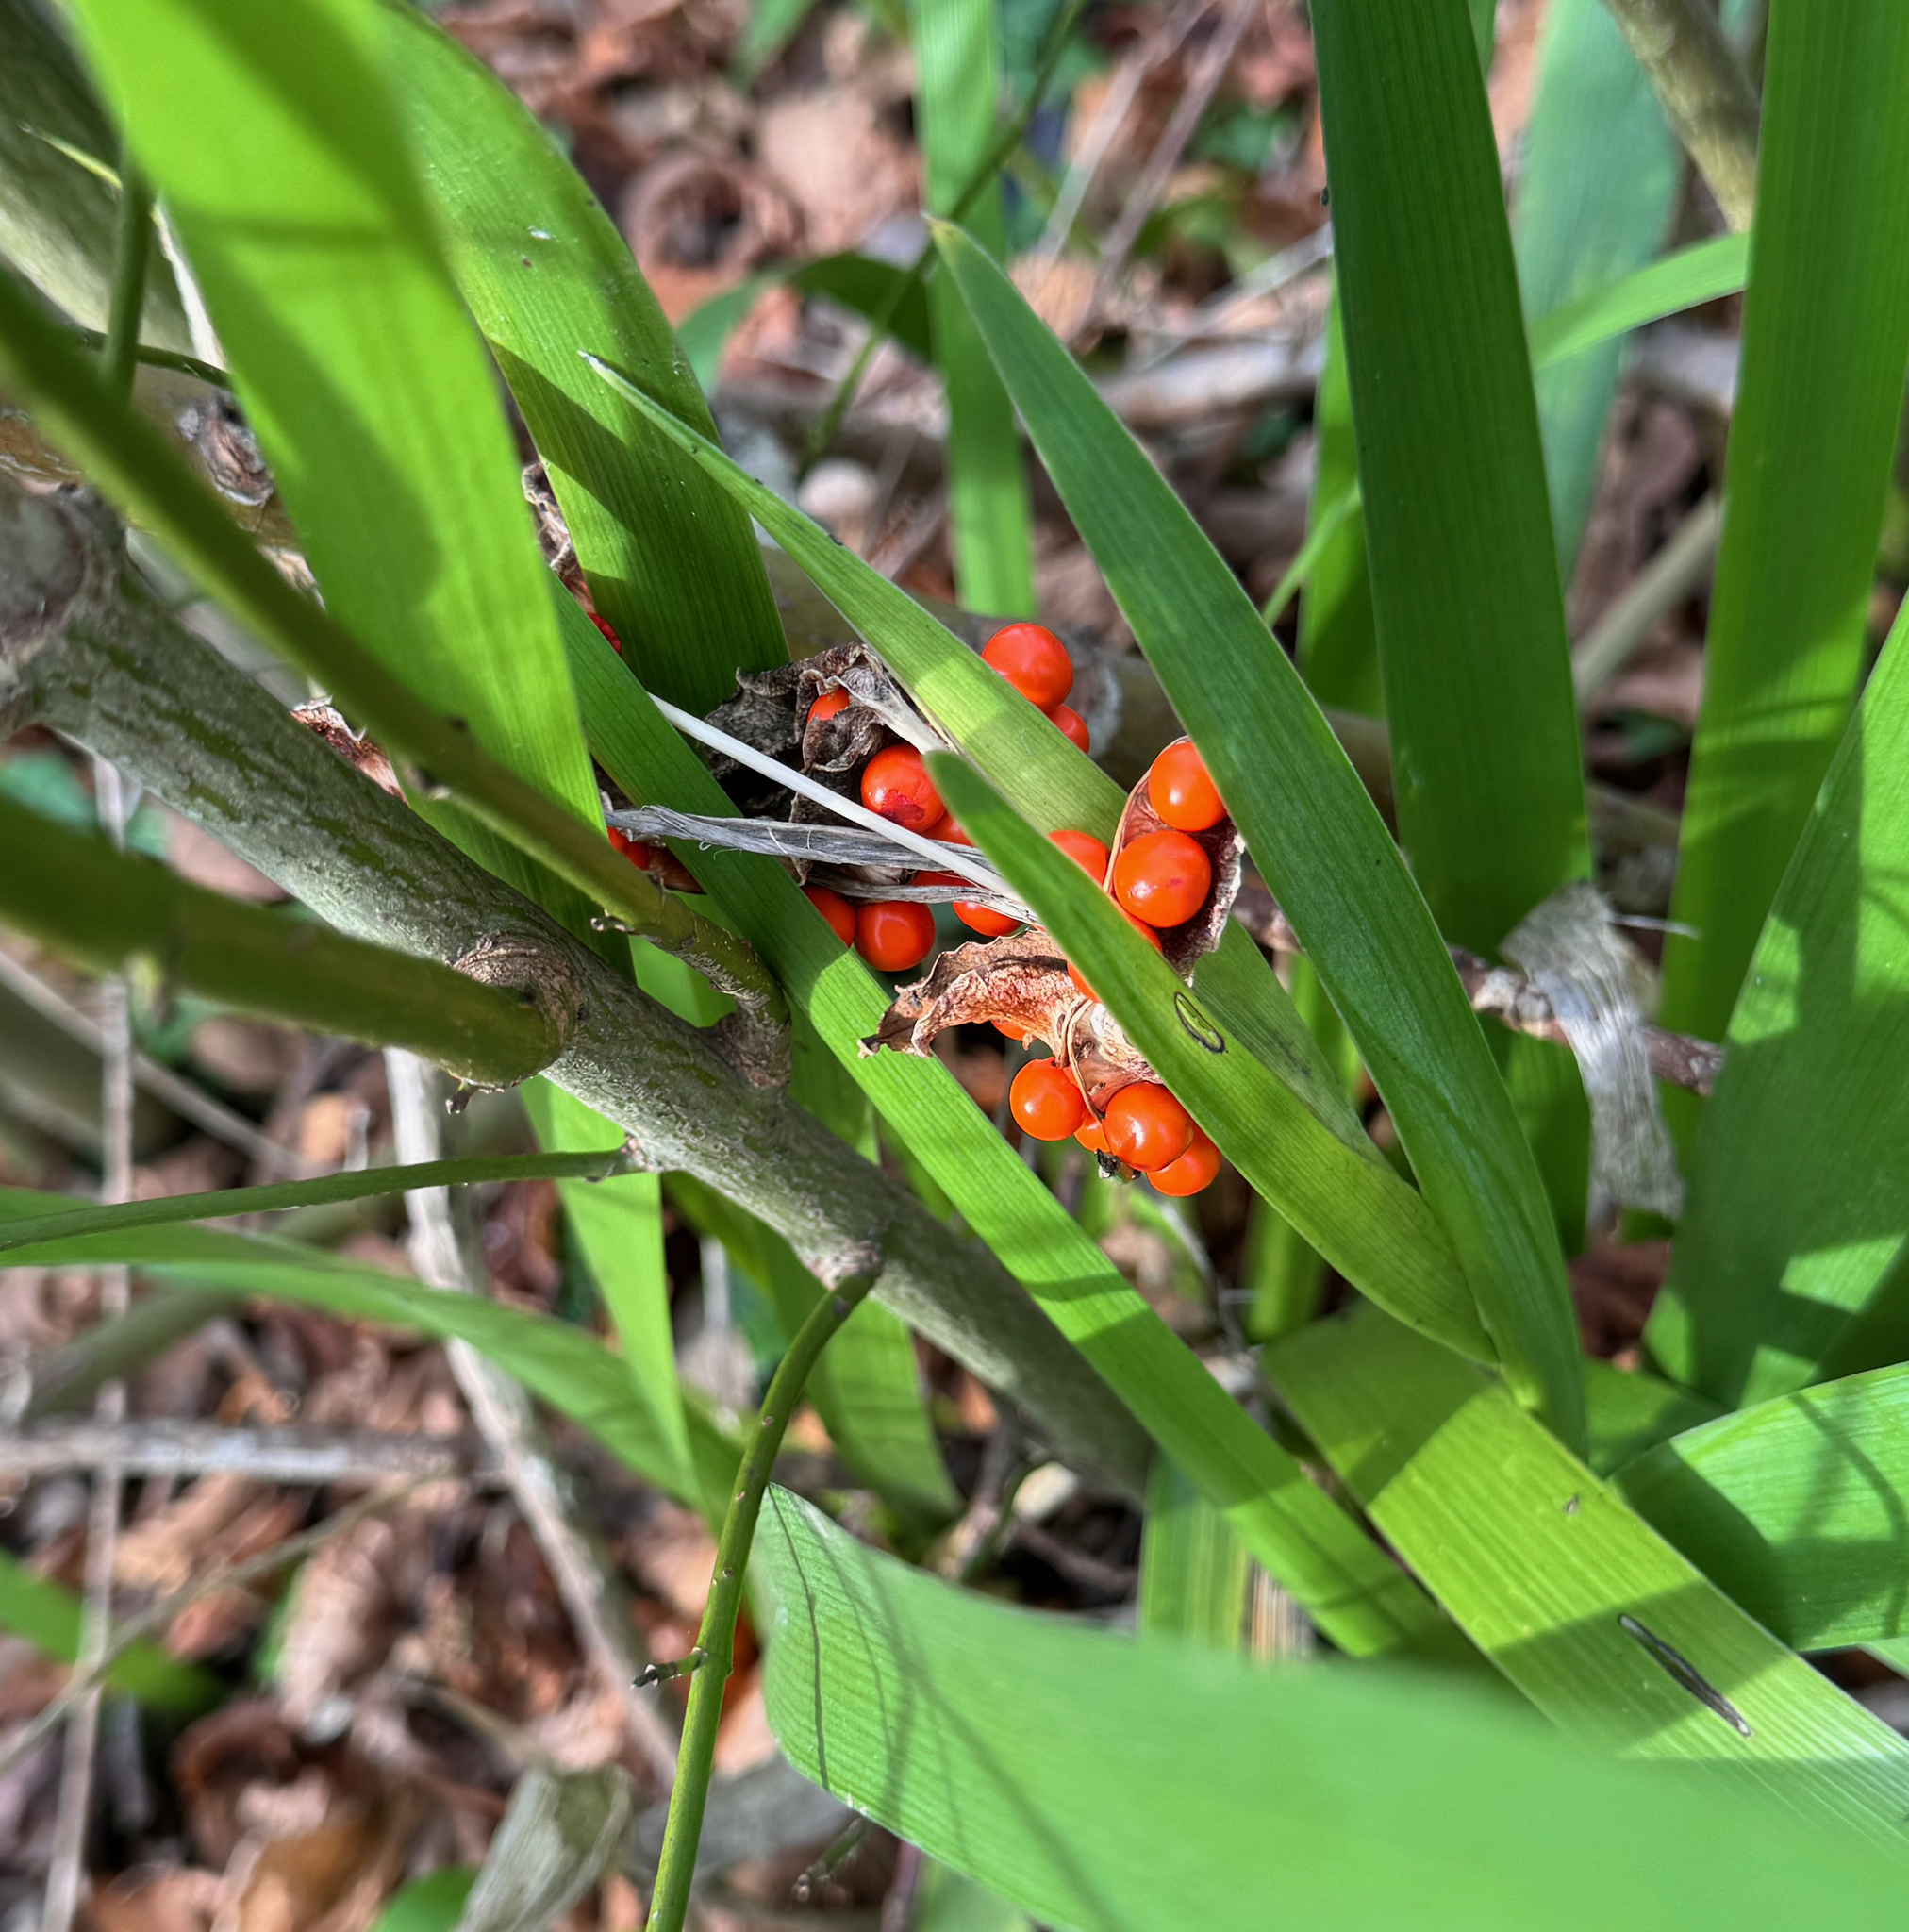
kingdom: Plantae
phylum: Tracheophyta
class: Liliopsida
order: Asparagales
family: Iridaceae
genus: Iris
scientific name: Iris foetidissima
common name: Stinking iris
